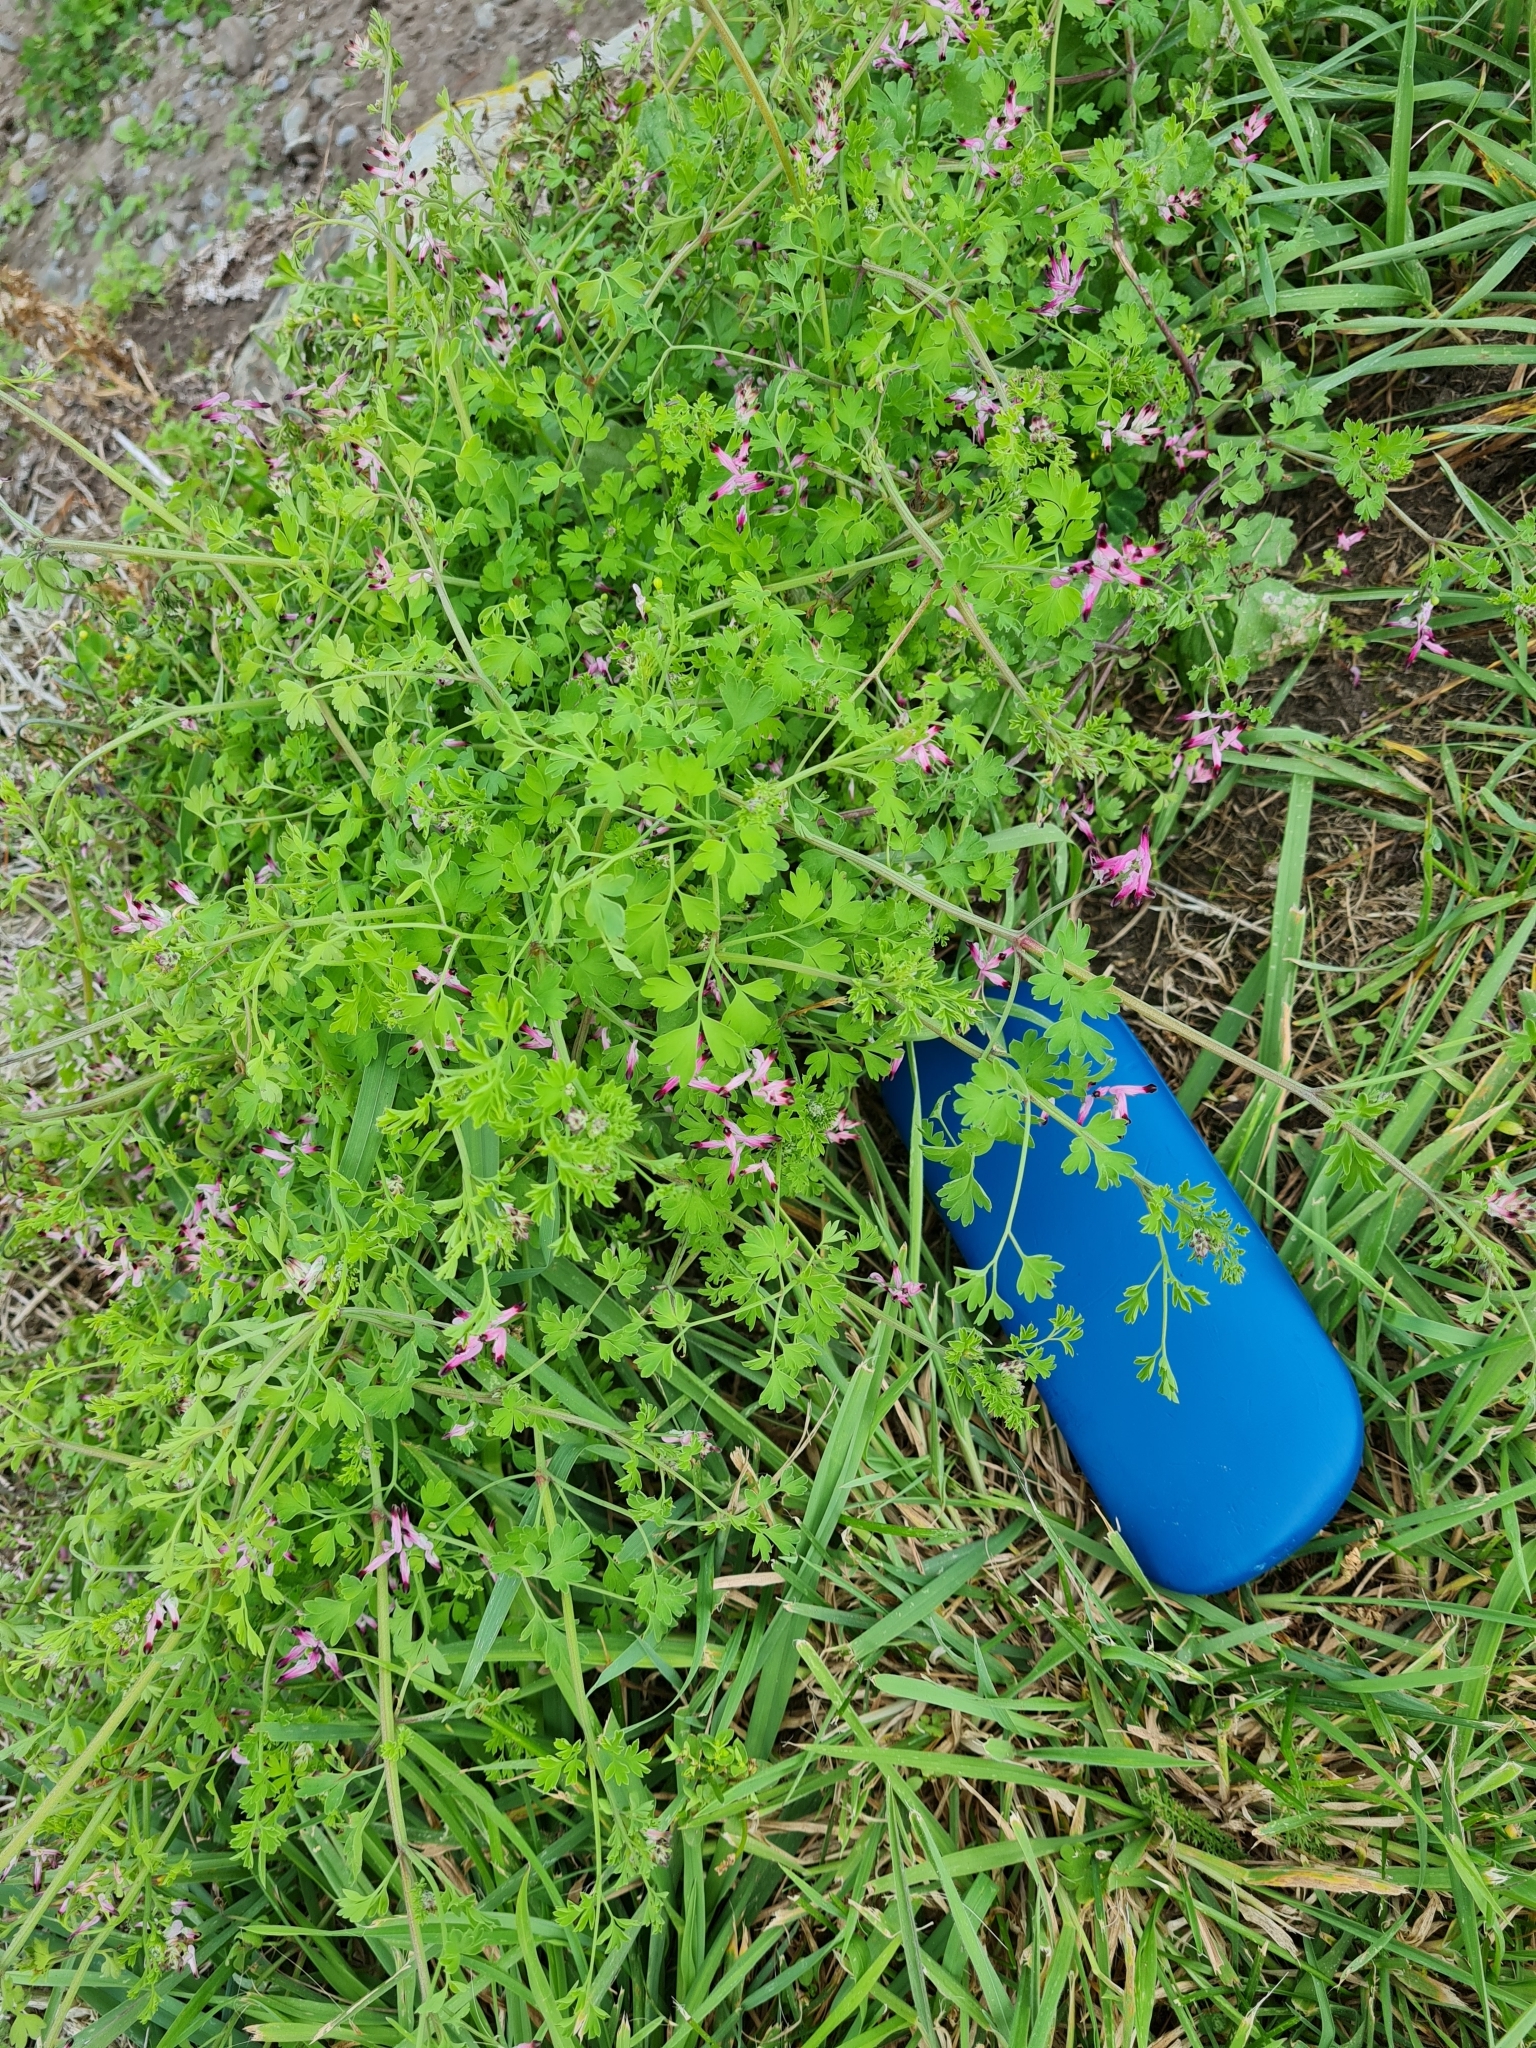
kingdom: Plantae
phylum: Tracheophyta
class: Magnoliopsida
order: Ranunculales
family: Papaveraceae
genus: Fumaria
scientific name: Fumaria muralis
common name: Common ramping-fumitory
